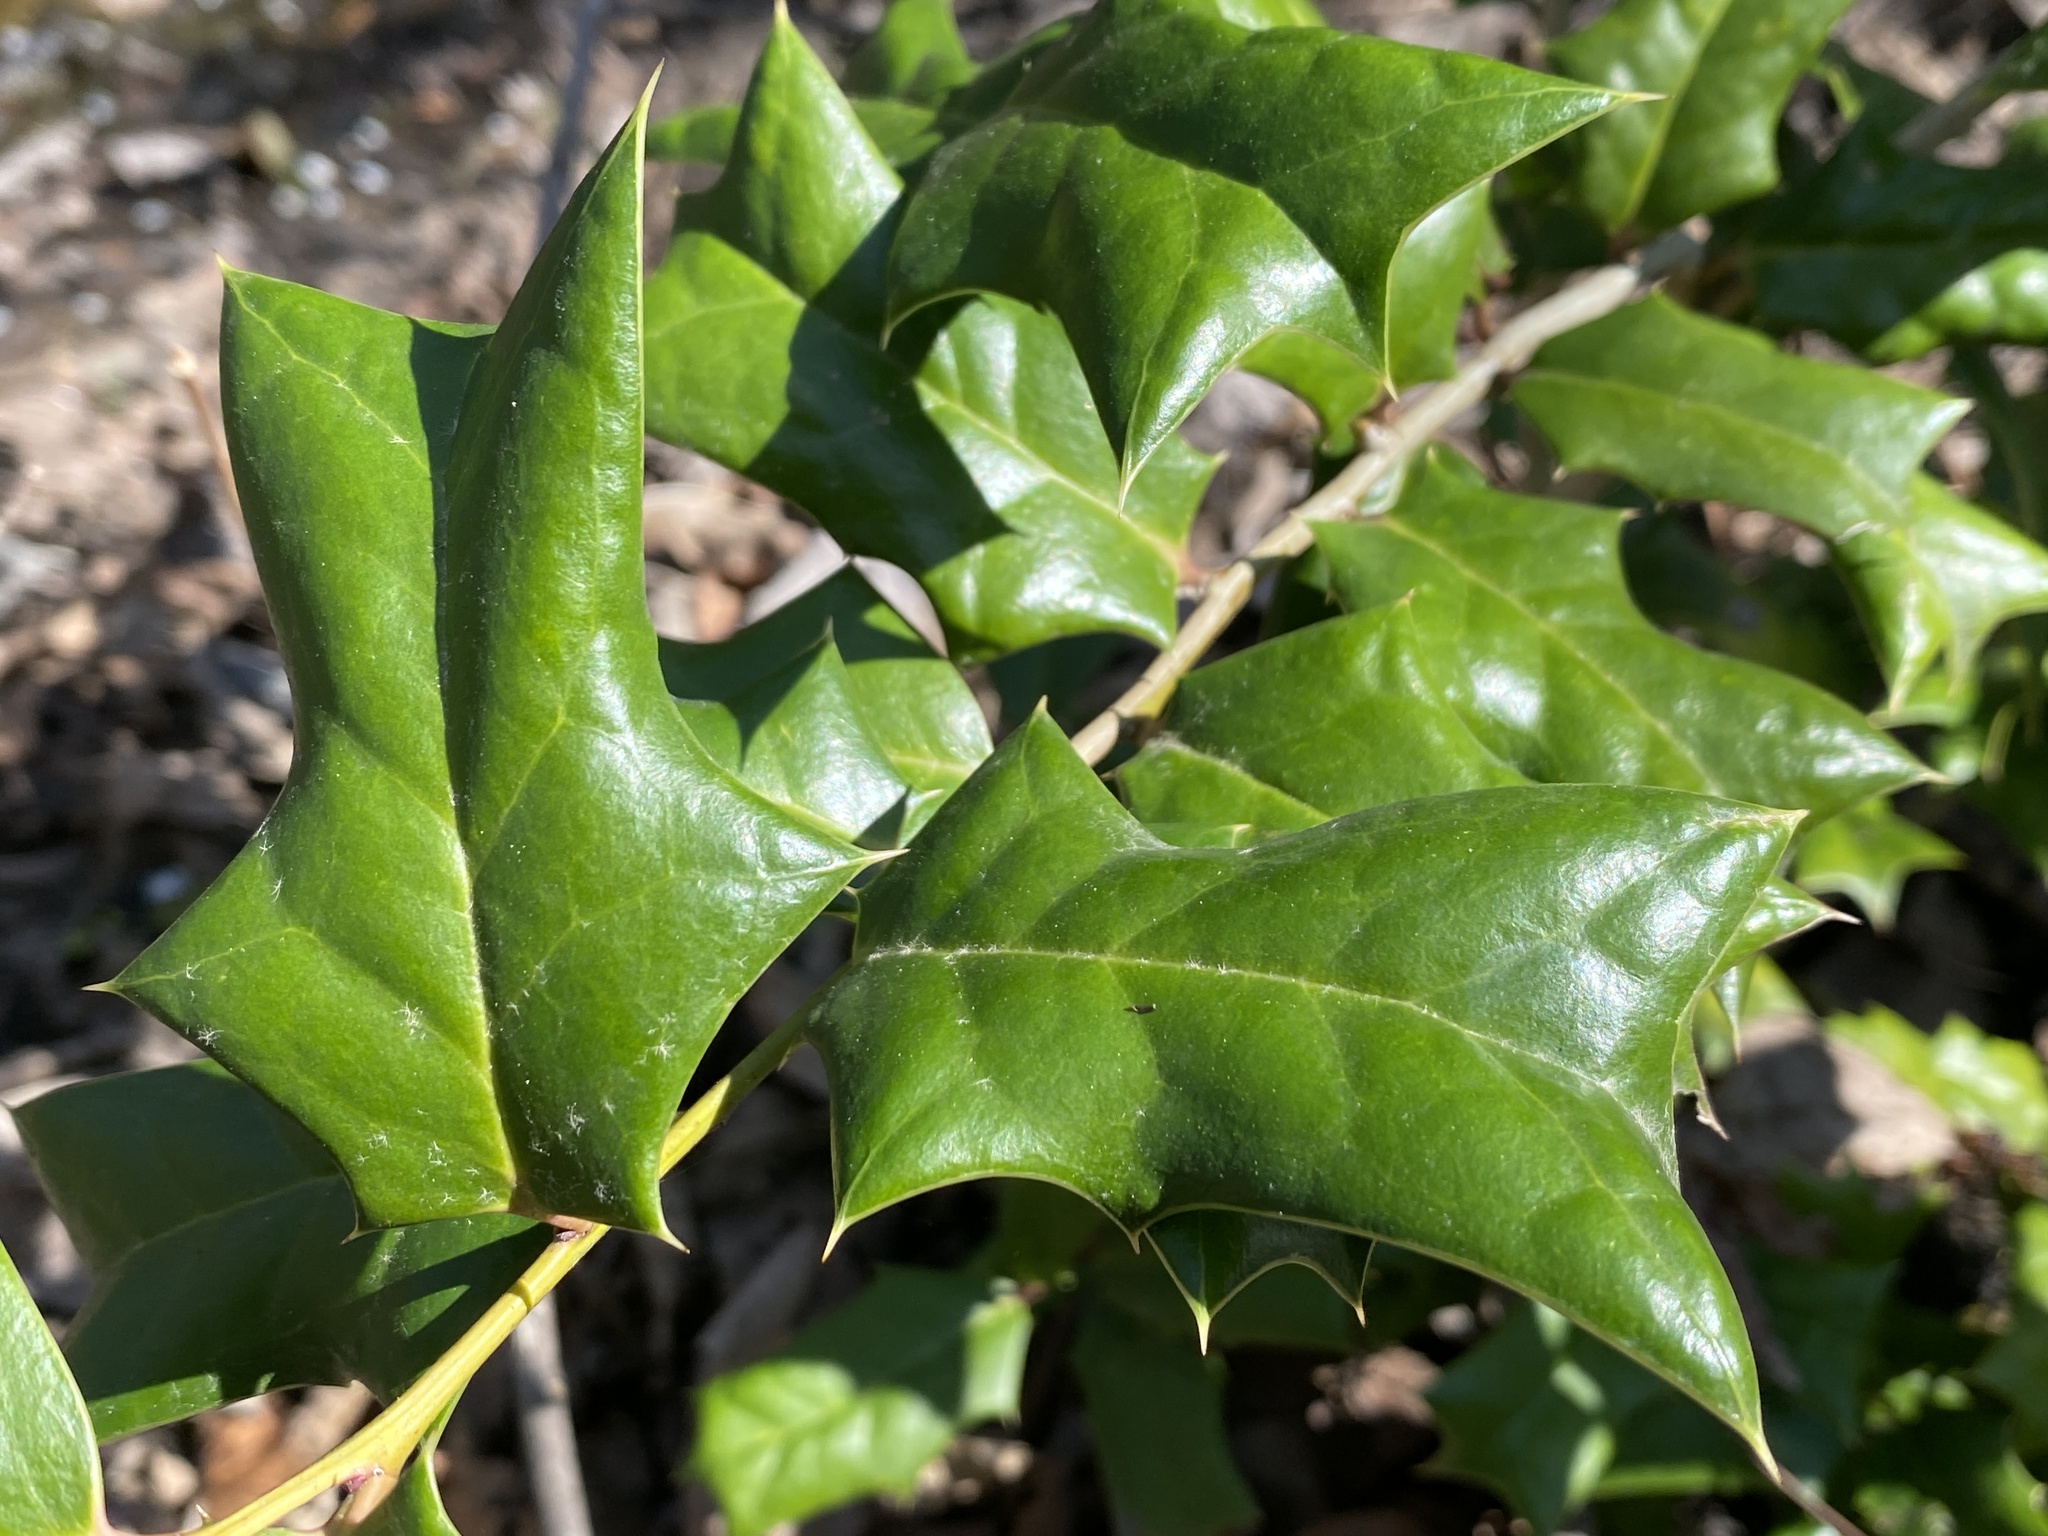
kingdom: Plantae
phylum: Tracheophyta
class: Magnoliopsida
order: Aquifoliales
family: Aquifoliaceae
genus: Ilex
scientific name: Ilex cornuta
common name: Chinese holly
